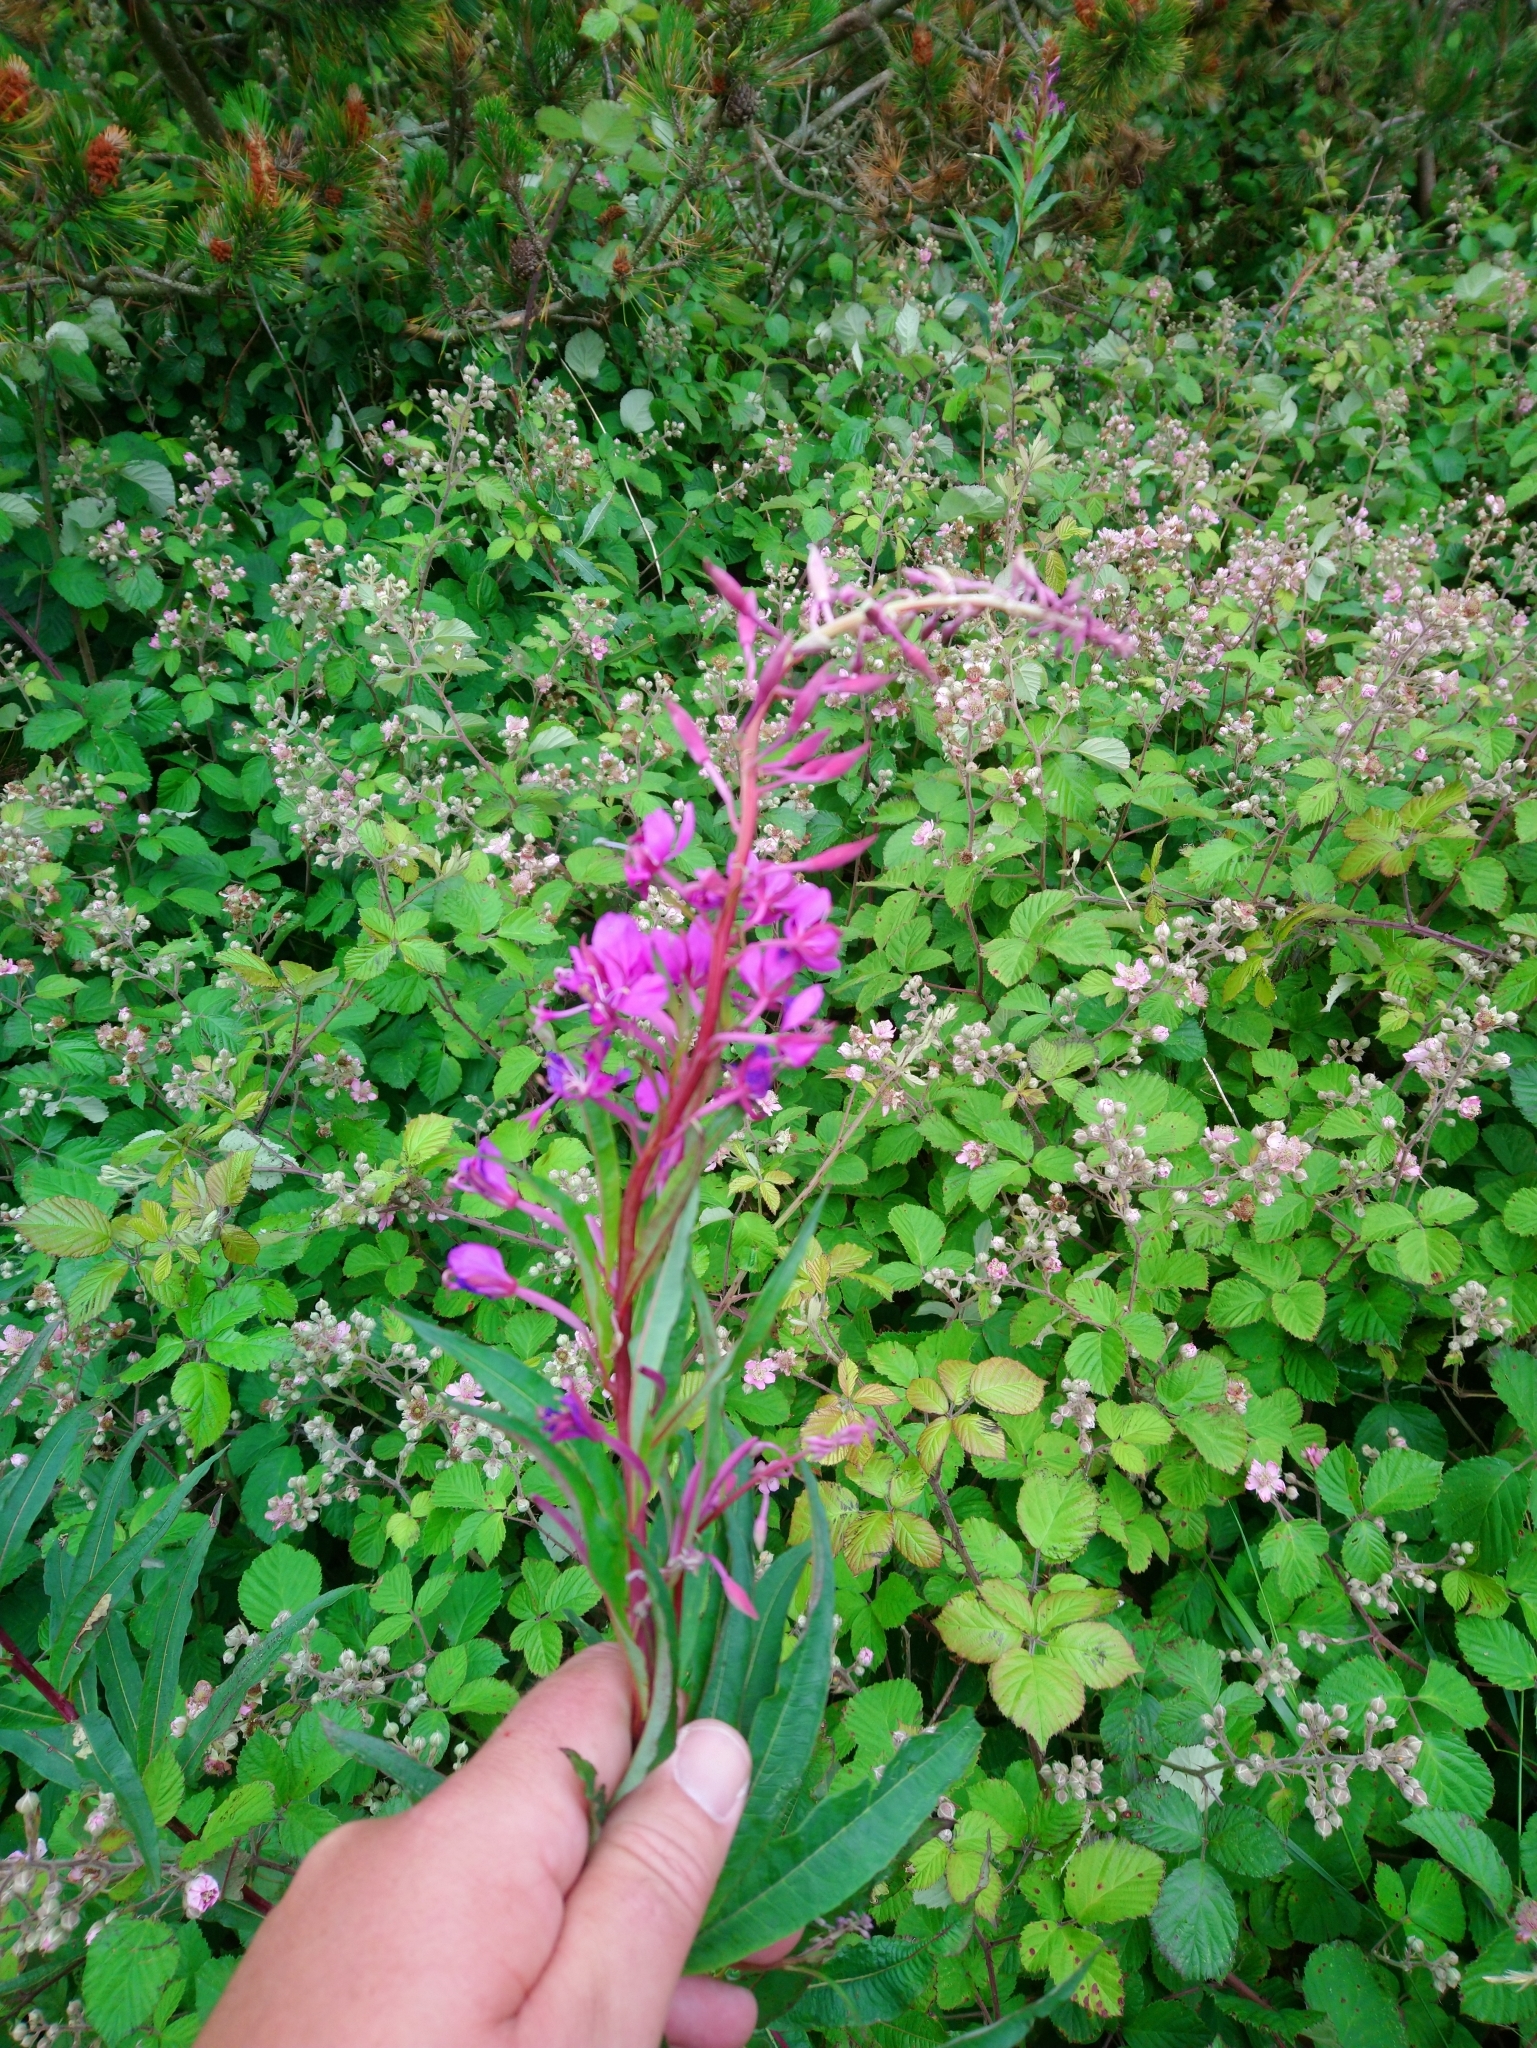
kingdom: Plantae
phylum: Tracheophyta
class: Magnoliopsida
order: Myrtales
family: Onagraceae
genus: Chamaenerion
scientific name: Chamaenerion angustifolium
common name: Fireweed
